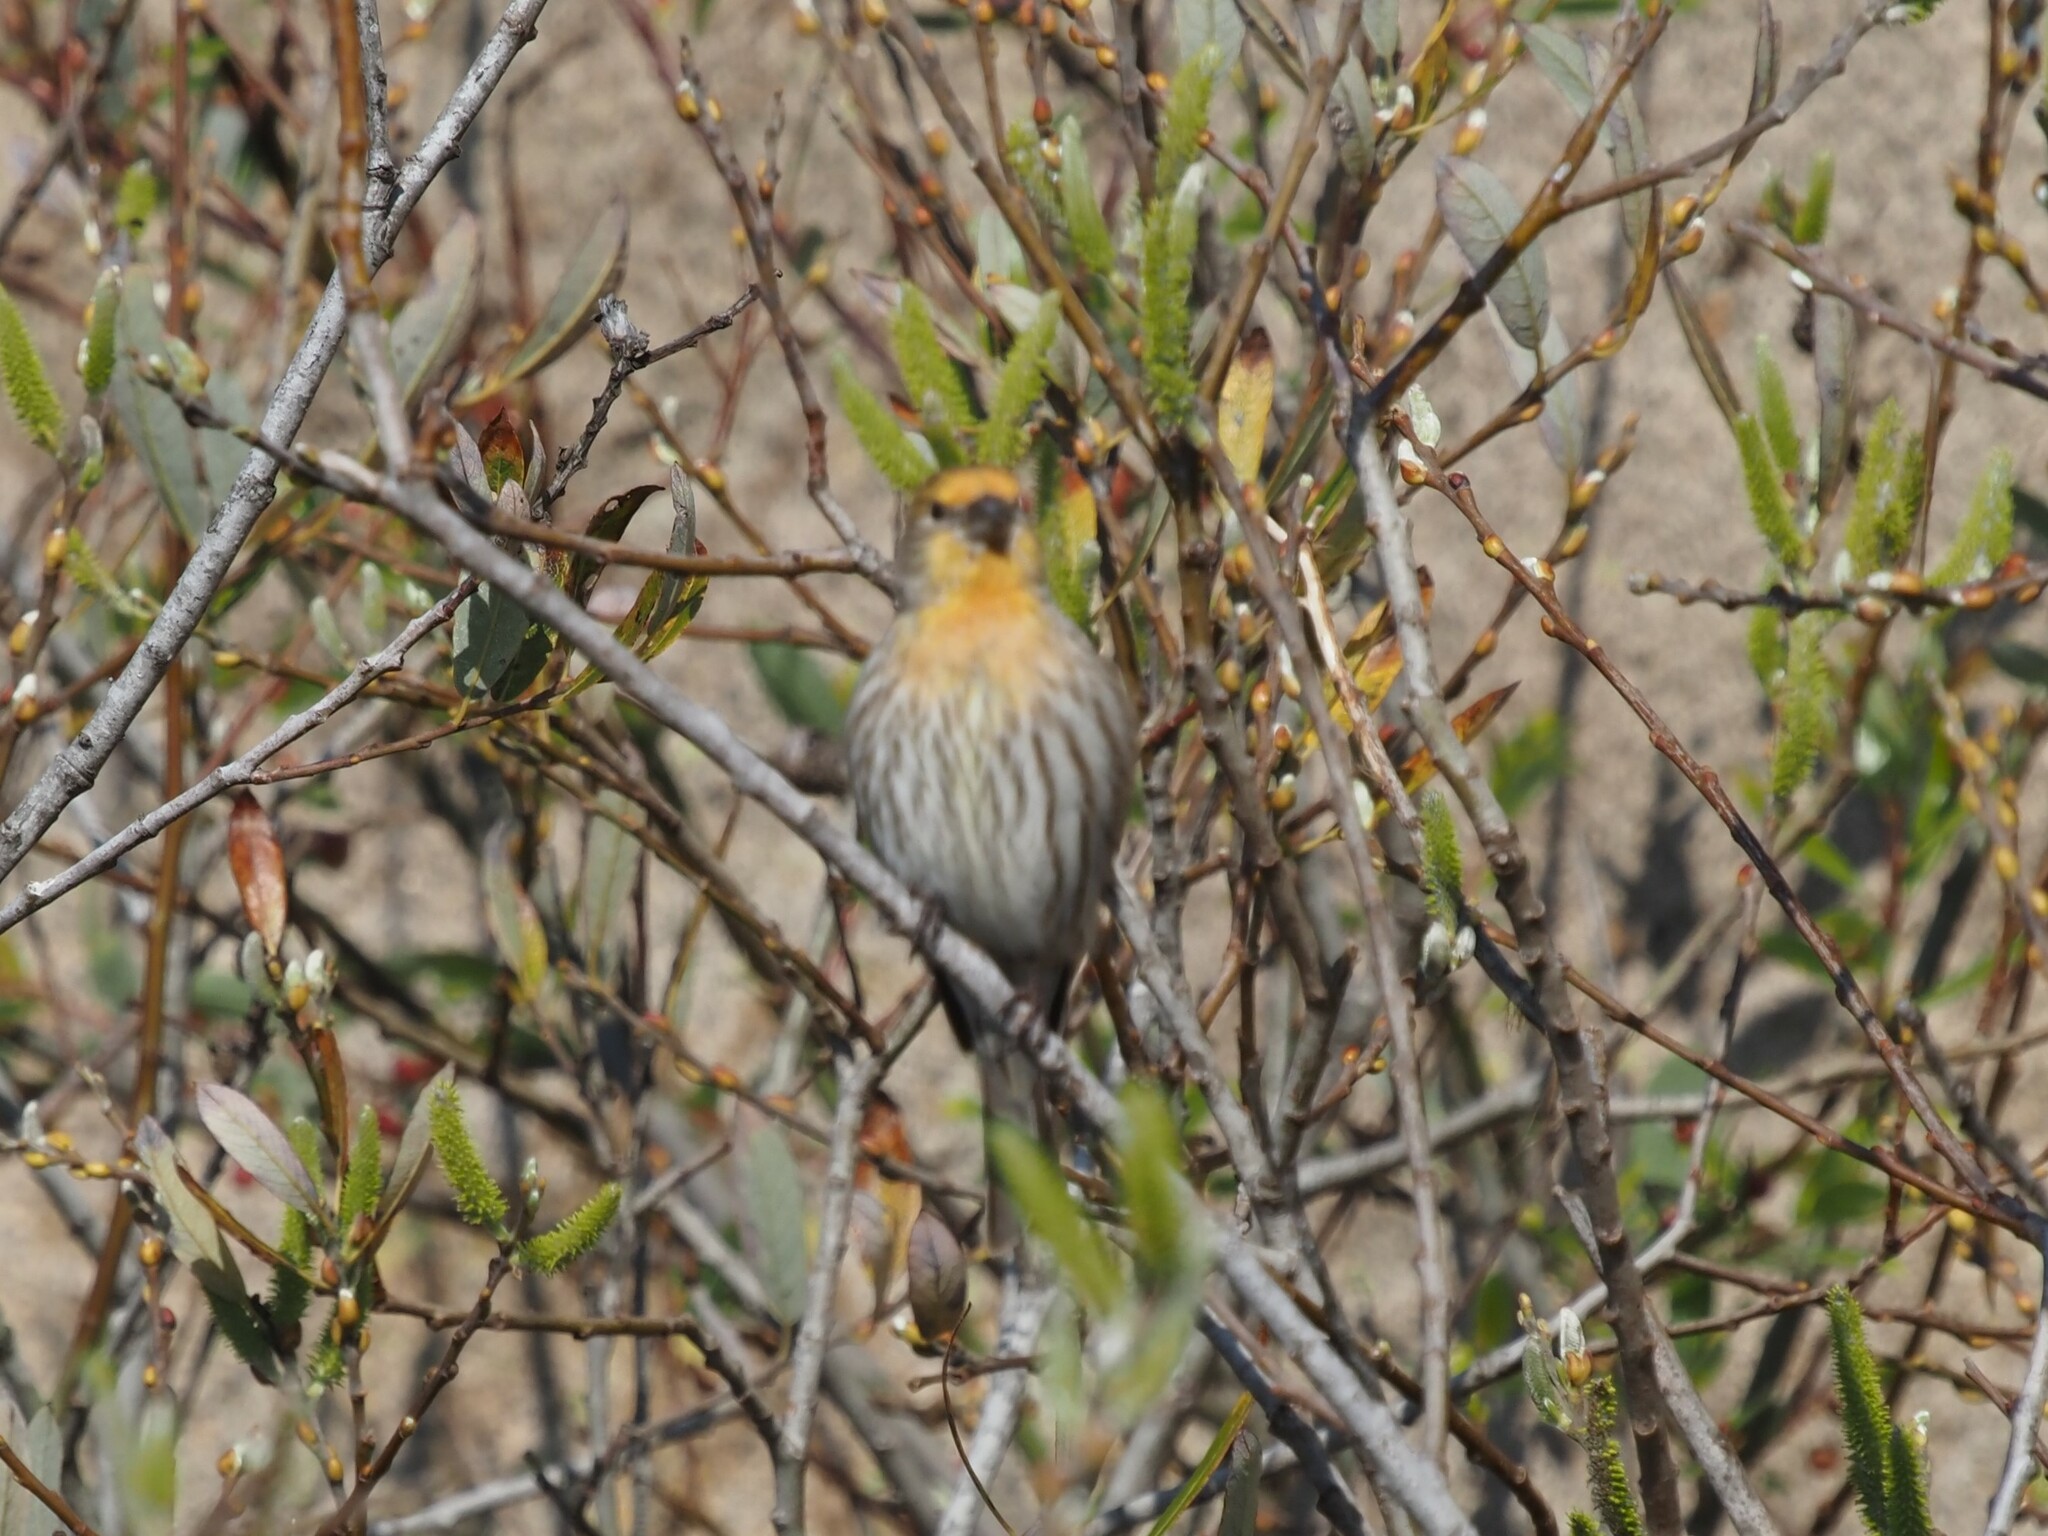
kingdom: Animalia
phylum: Chordata
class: Aves
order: Passeriformes
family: Fringillidae
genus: Haemorhous
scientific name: Haemorhous mexicanus
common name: House finch
